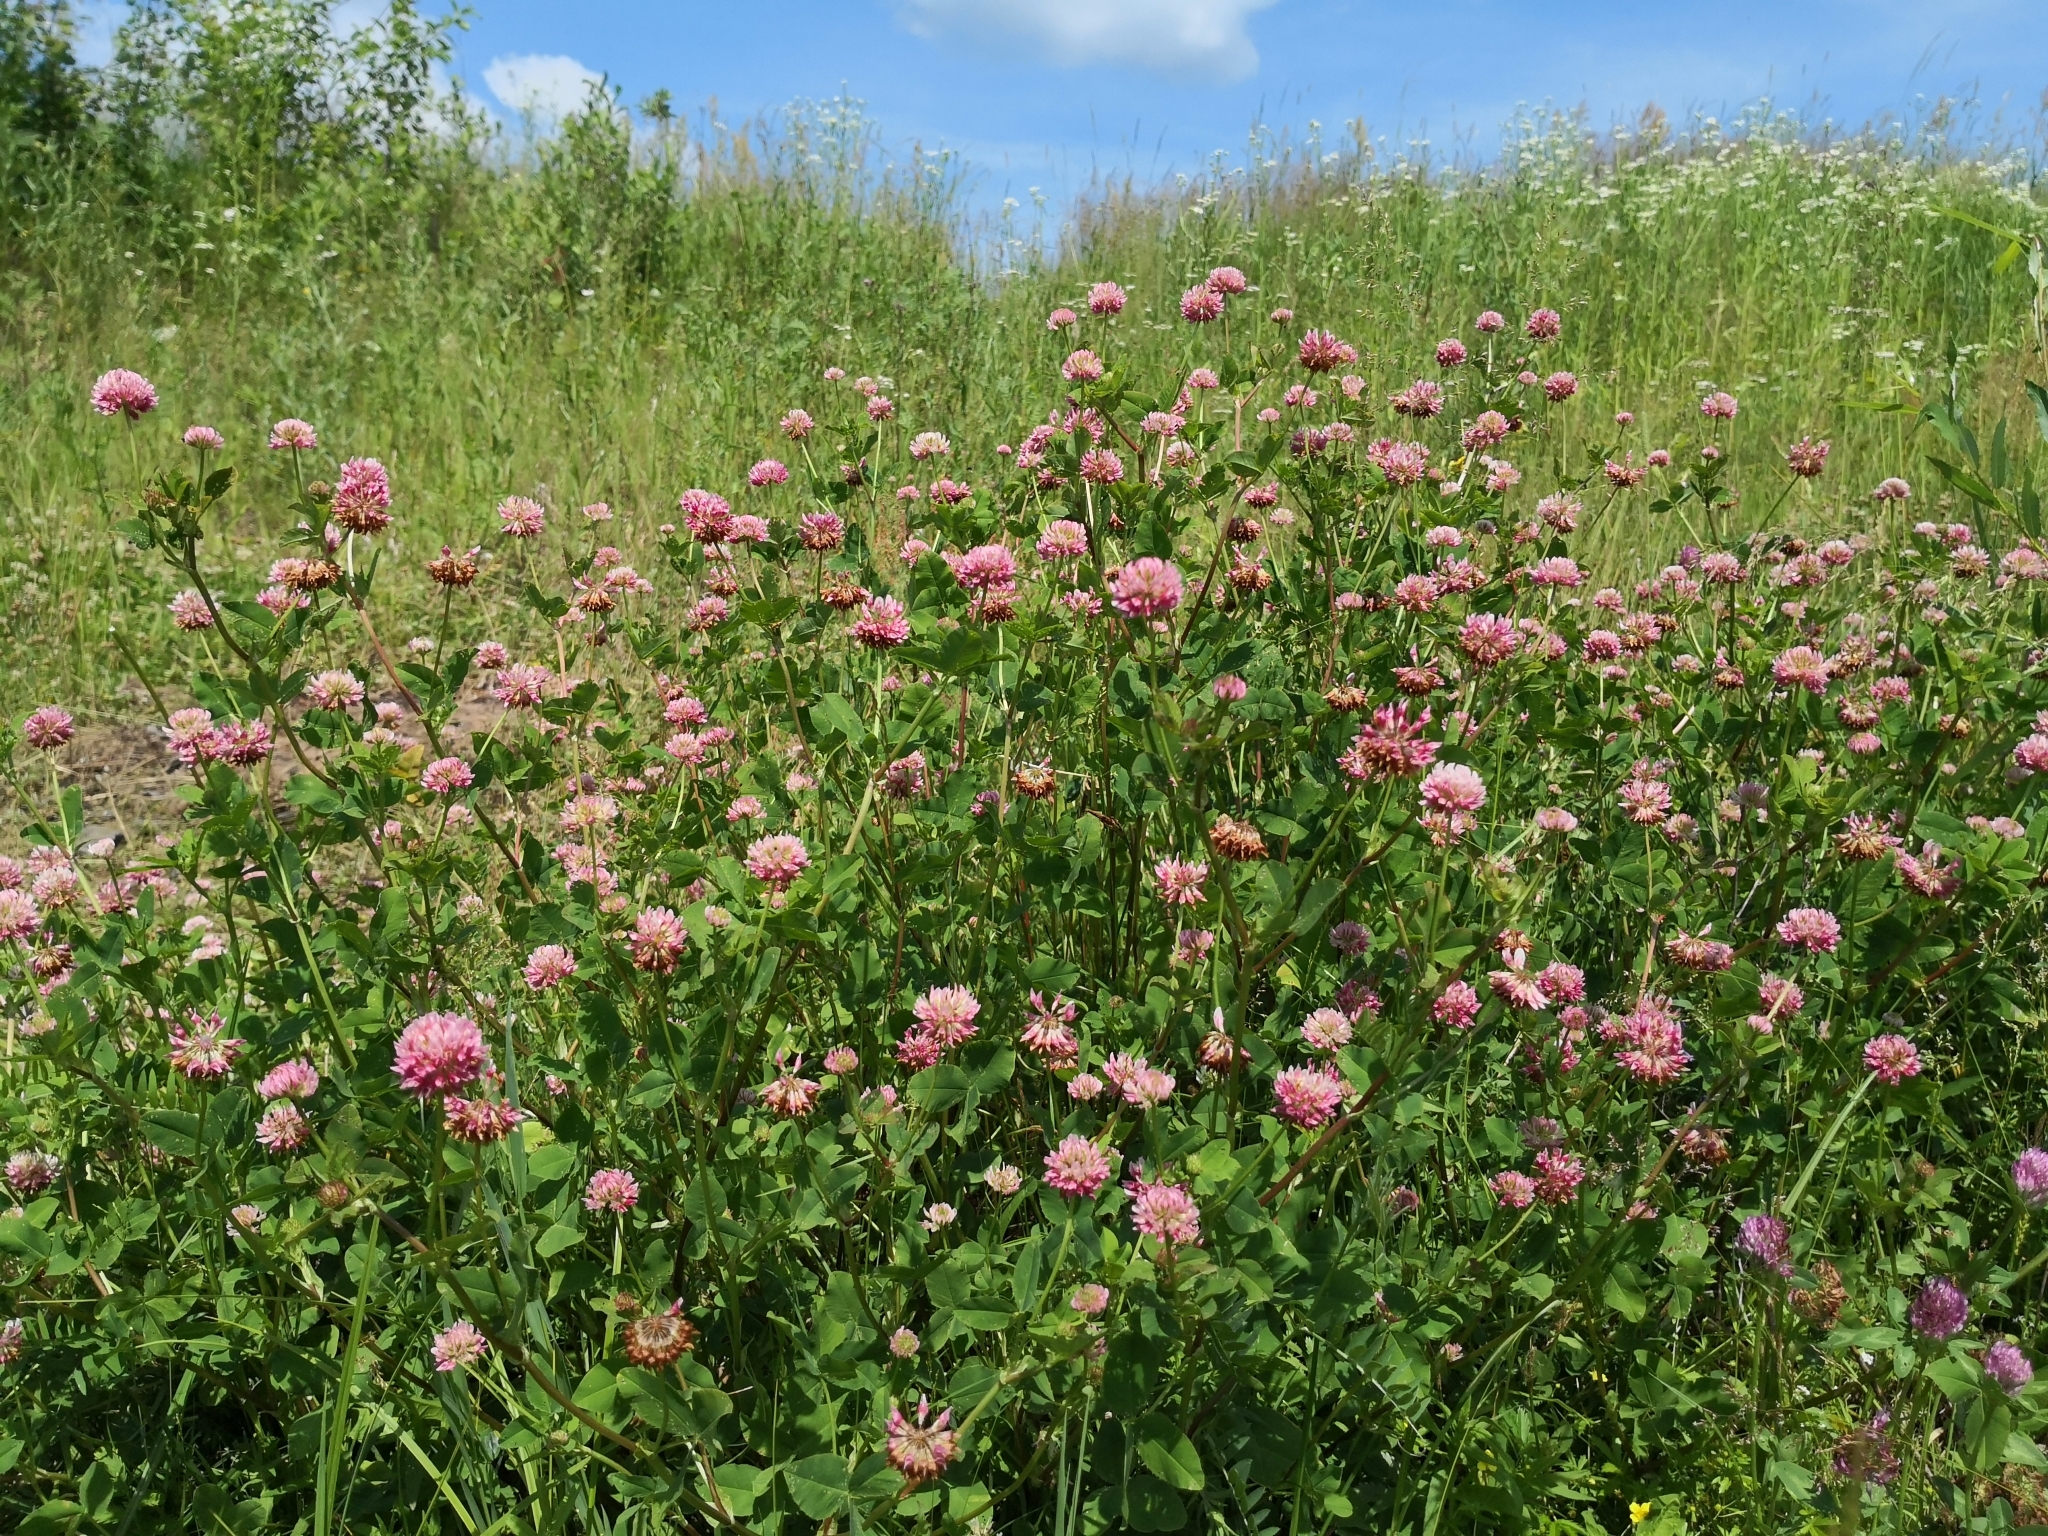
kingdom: Plantae
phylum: Tracheophyta
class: Magnoliopsida
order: Fabales
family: Fabaceae
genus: Trifolium
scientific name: Trifolium hybridum
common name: Alsike clover
